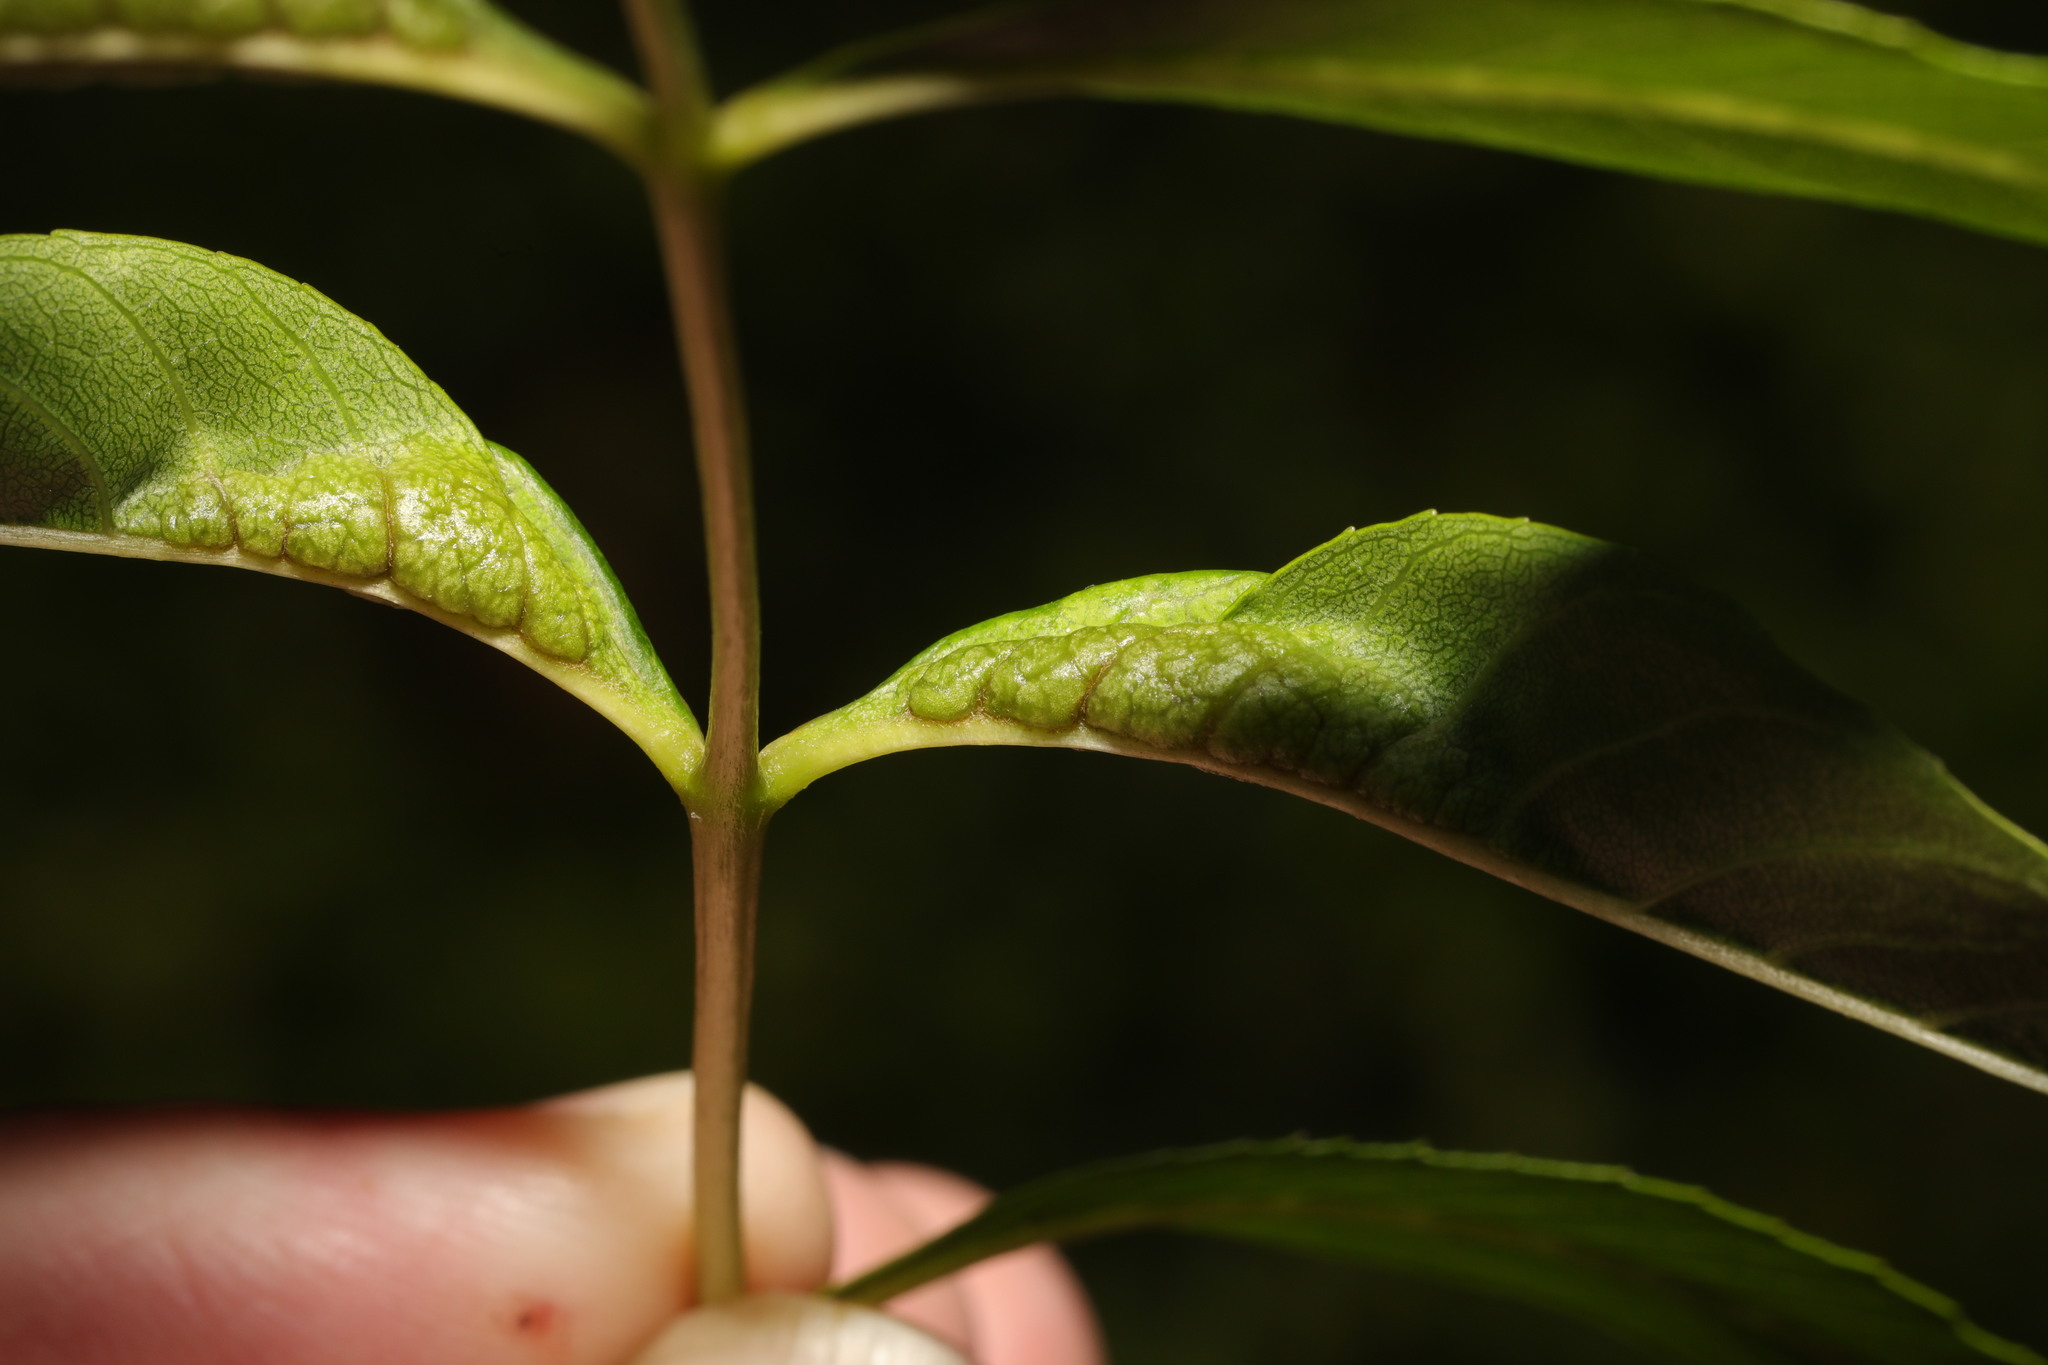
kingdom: Animalia
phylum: Arthropoda
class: Insecta
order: Diptera
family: Cecidomyiidae
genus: Dasineura
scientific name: Dasineura acrophila
